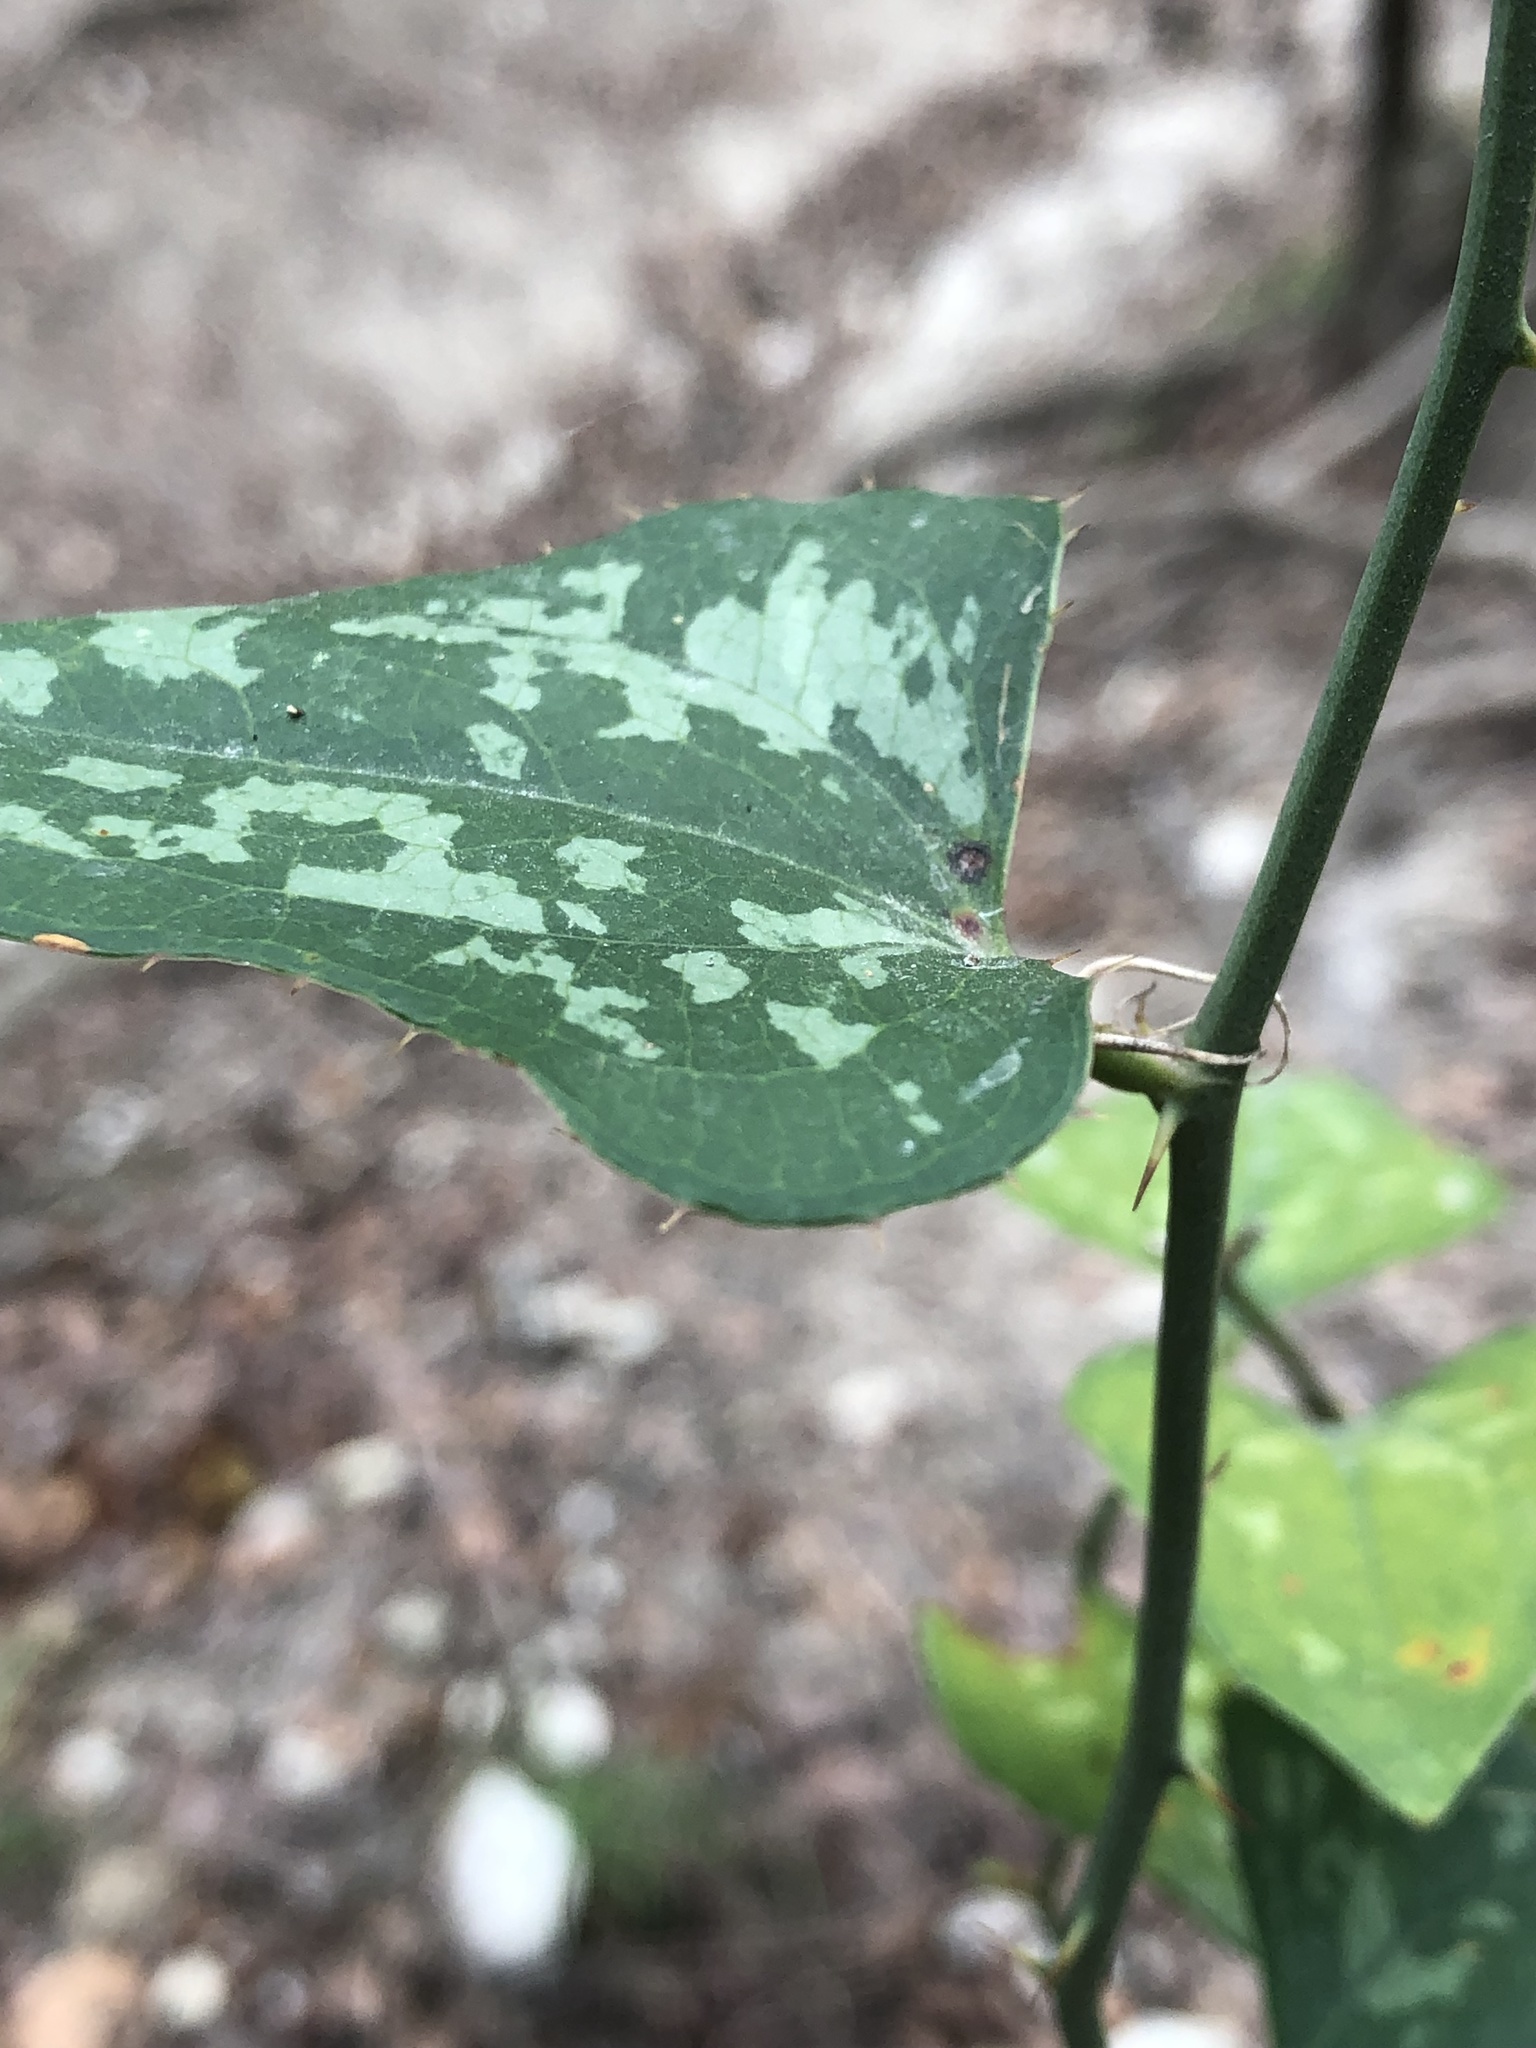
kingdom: Plantae
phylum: Tracheophyta
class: Liliopsida
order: Liliales
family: Smilacaceae
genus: Smilax
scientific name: Smilax bona-nox
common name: Catbrier
